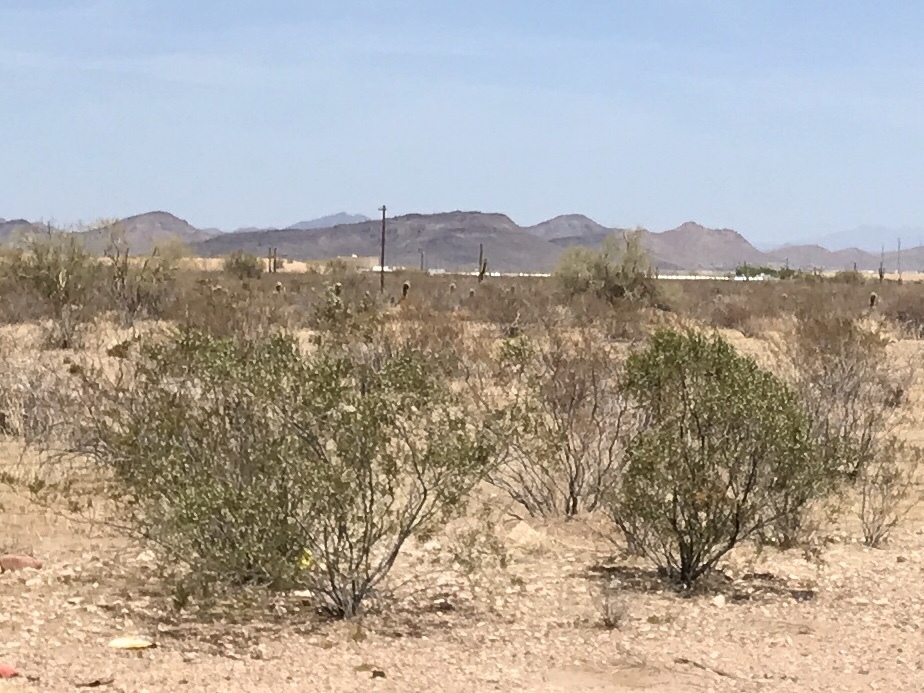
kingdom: Plantae
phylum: Tracheophyta
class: Magnoliopsida
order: Zygophyllales
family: Zygophyllaceae
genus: Larrea
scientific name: Larrea tridentata
